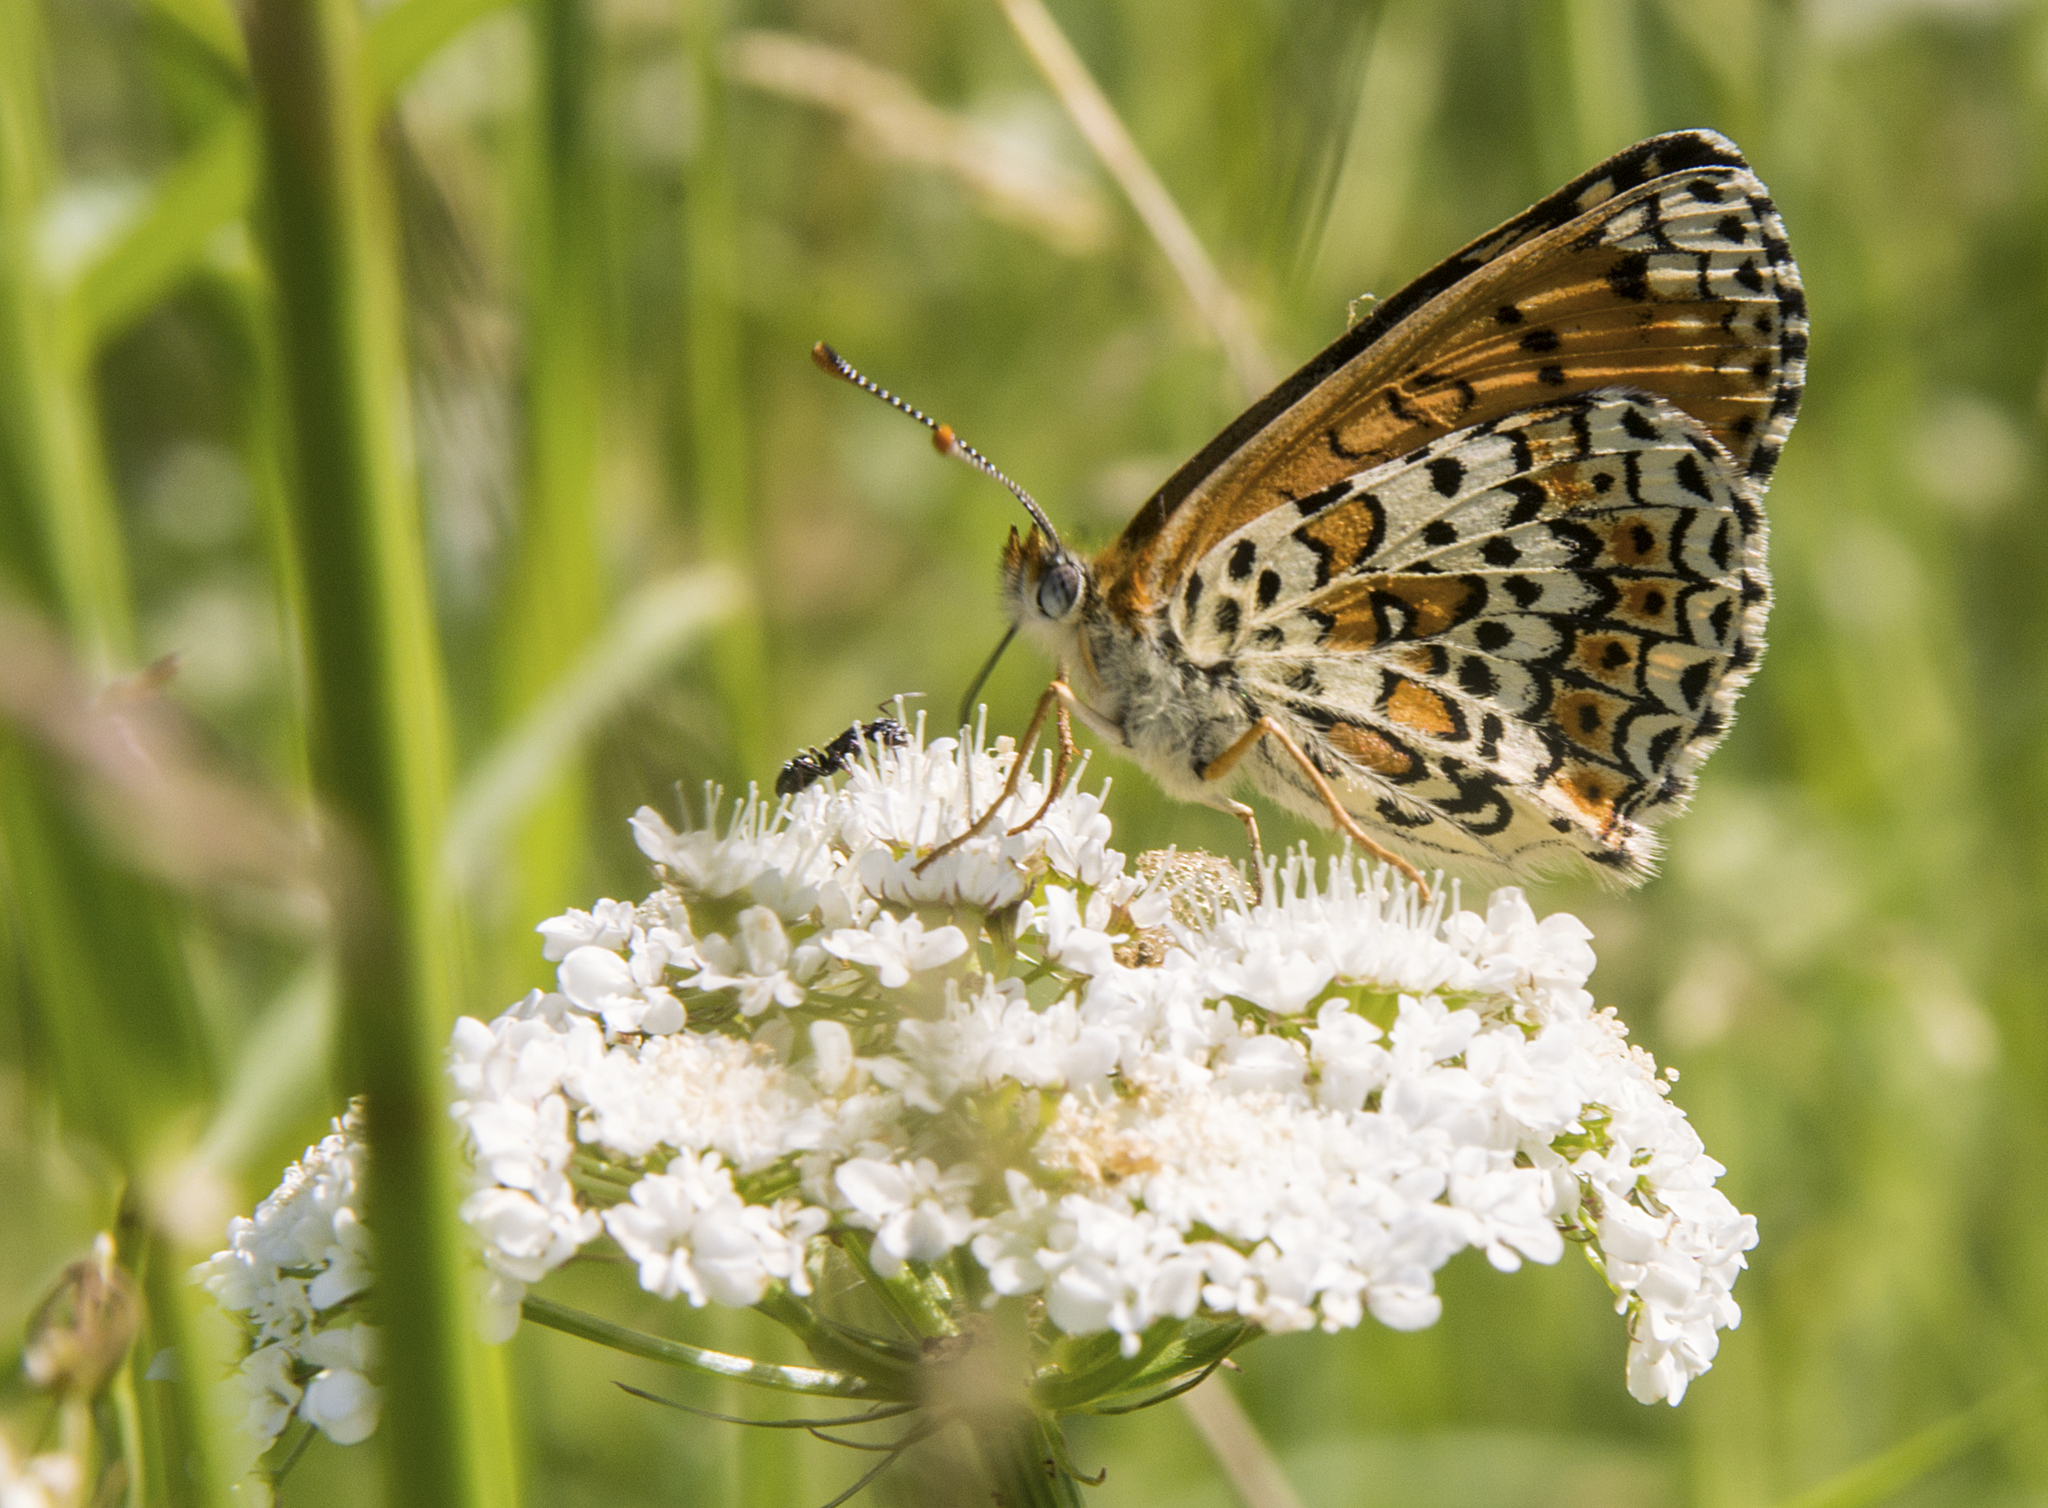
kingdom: Animalia
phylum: Arthropoda
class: Insecta
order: Lepidoptera
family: Nymphalidae
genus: Melitaea
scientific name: Melitaea cinxia
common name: Glanville fritillary
